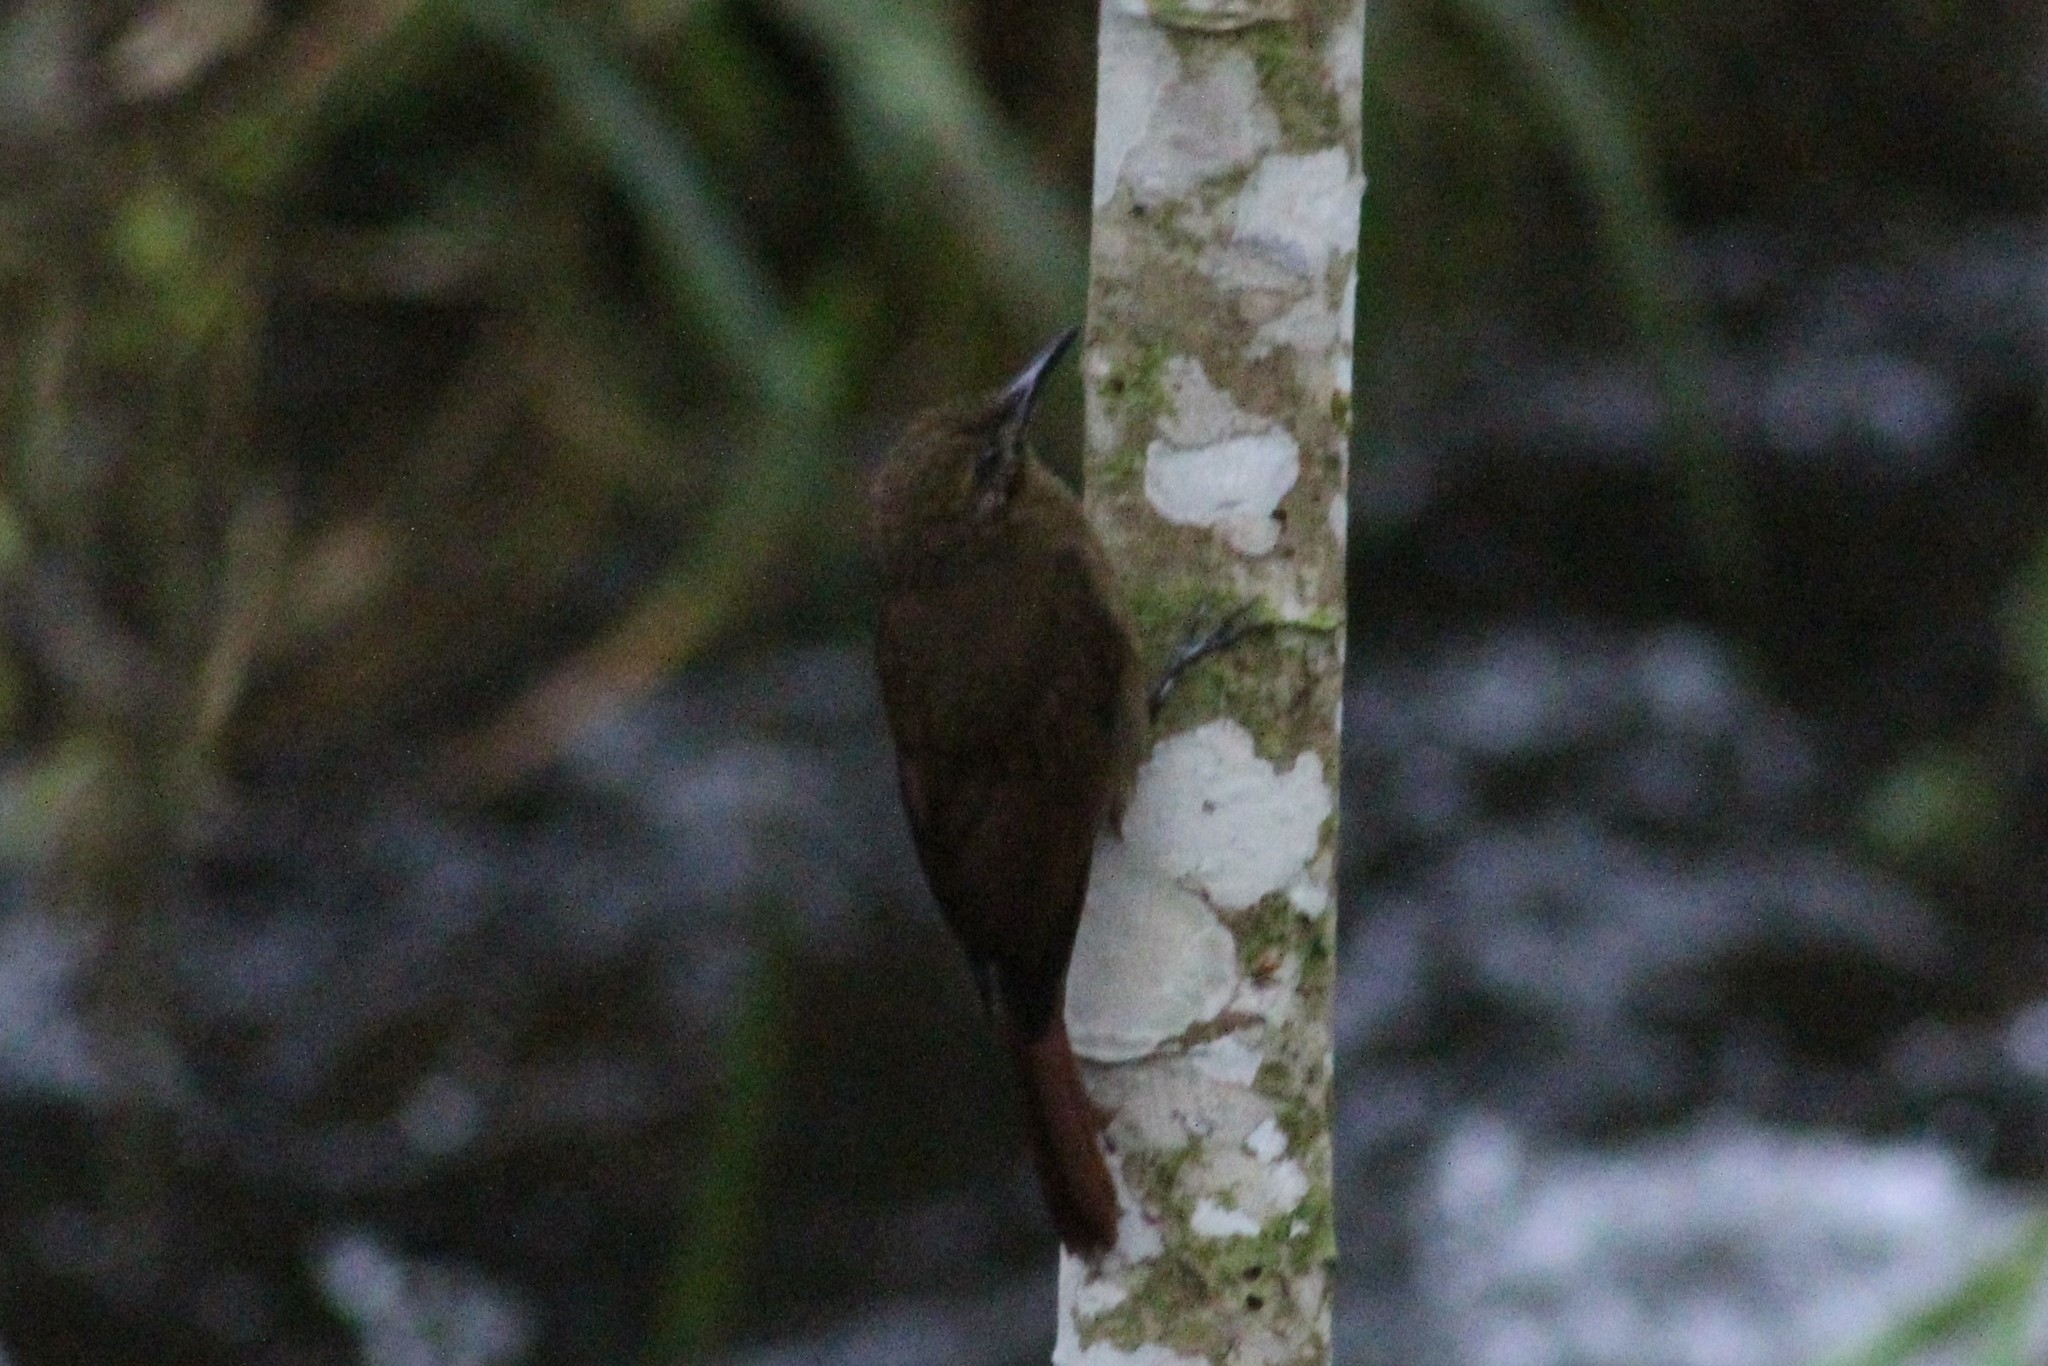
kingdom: Animalia
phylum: Chordata
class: Aves
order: Passeriformes
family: Furnariidae
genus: Dendrocincla
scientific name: Dendrocincla fuliginosa
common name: Plain-brown woodcreeper
